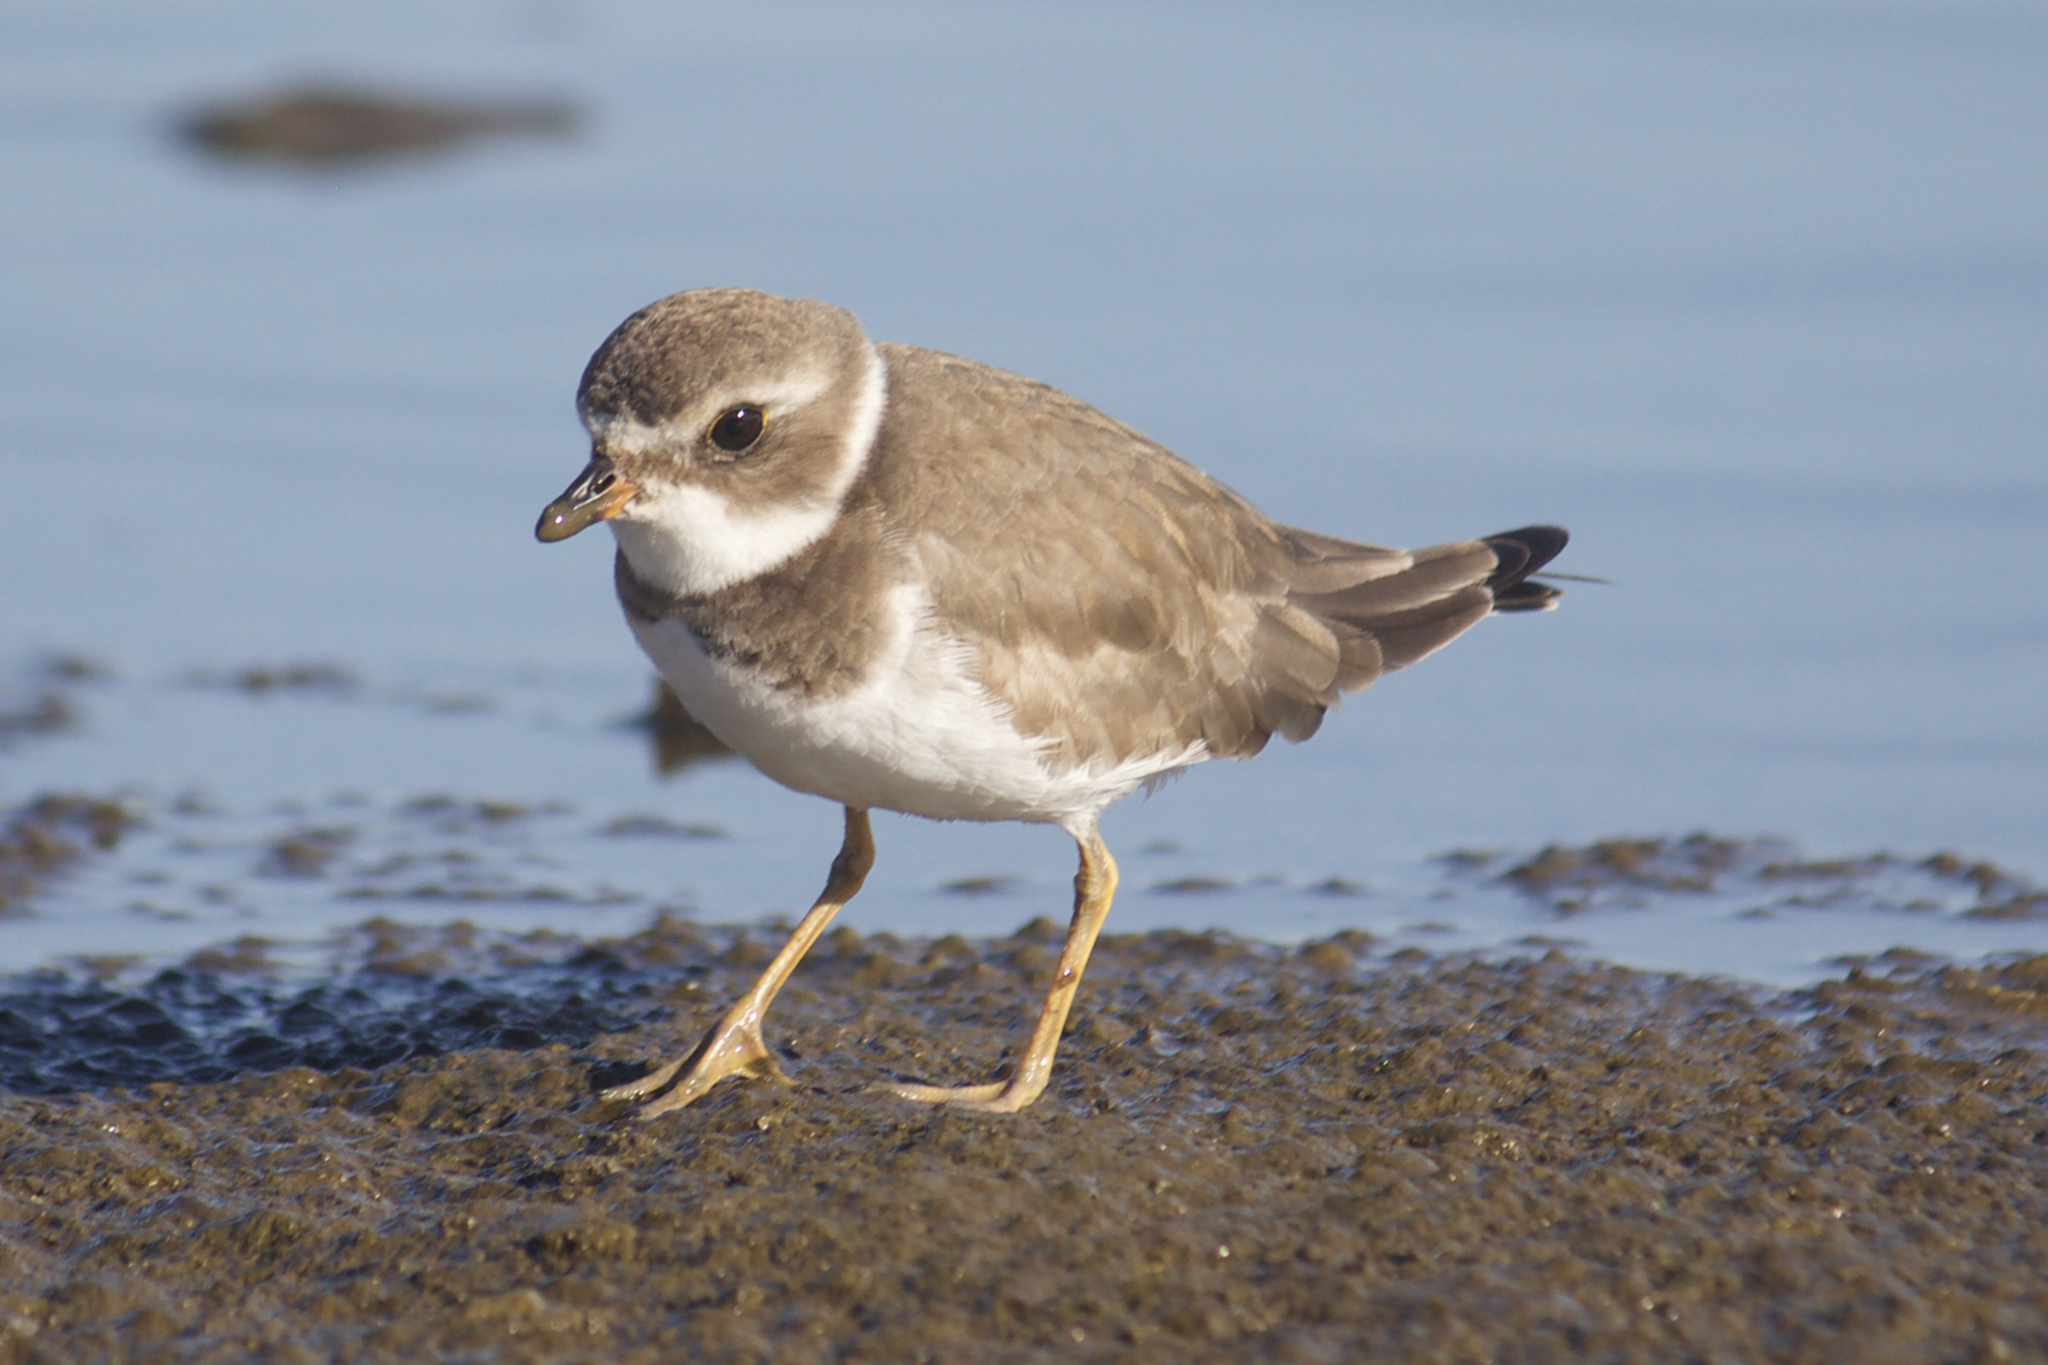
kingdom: Animalia
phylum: Chordata
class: Aves
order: Charadriiformes
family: Charadriidae
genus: Charadrius
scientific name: Charadrius semipalmatus
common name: Semipalmated plover
